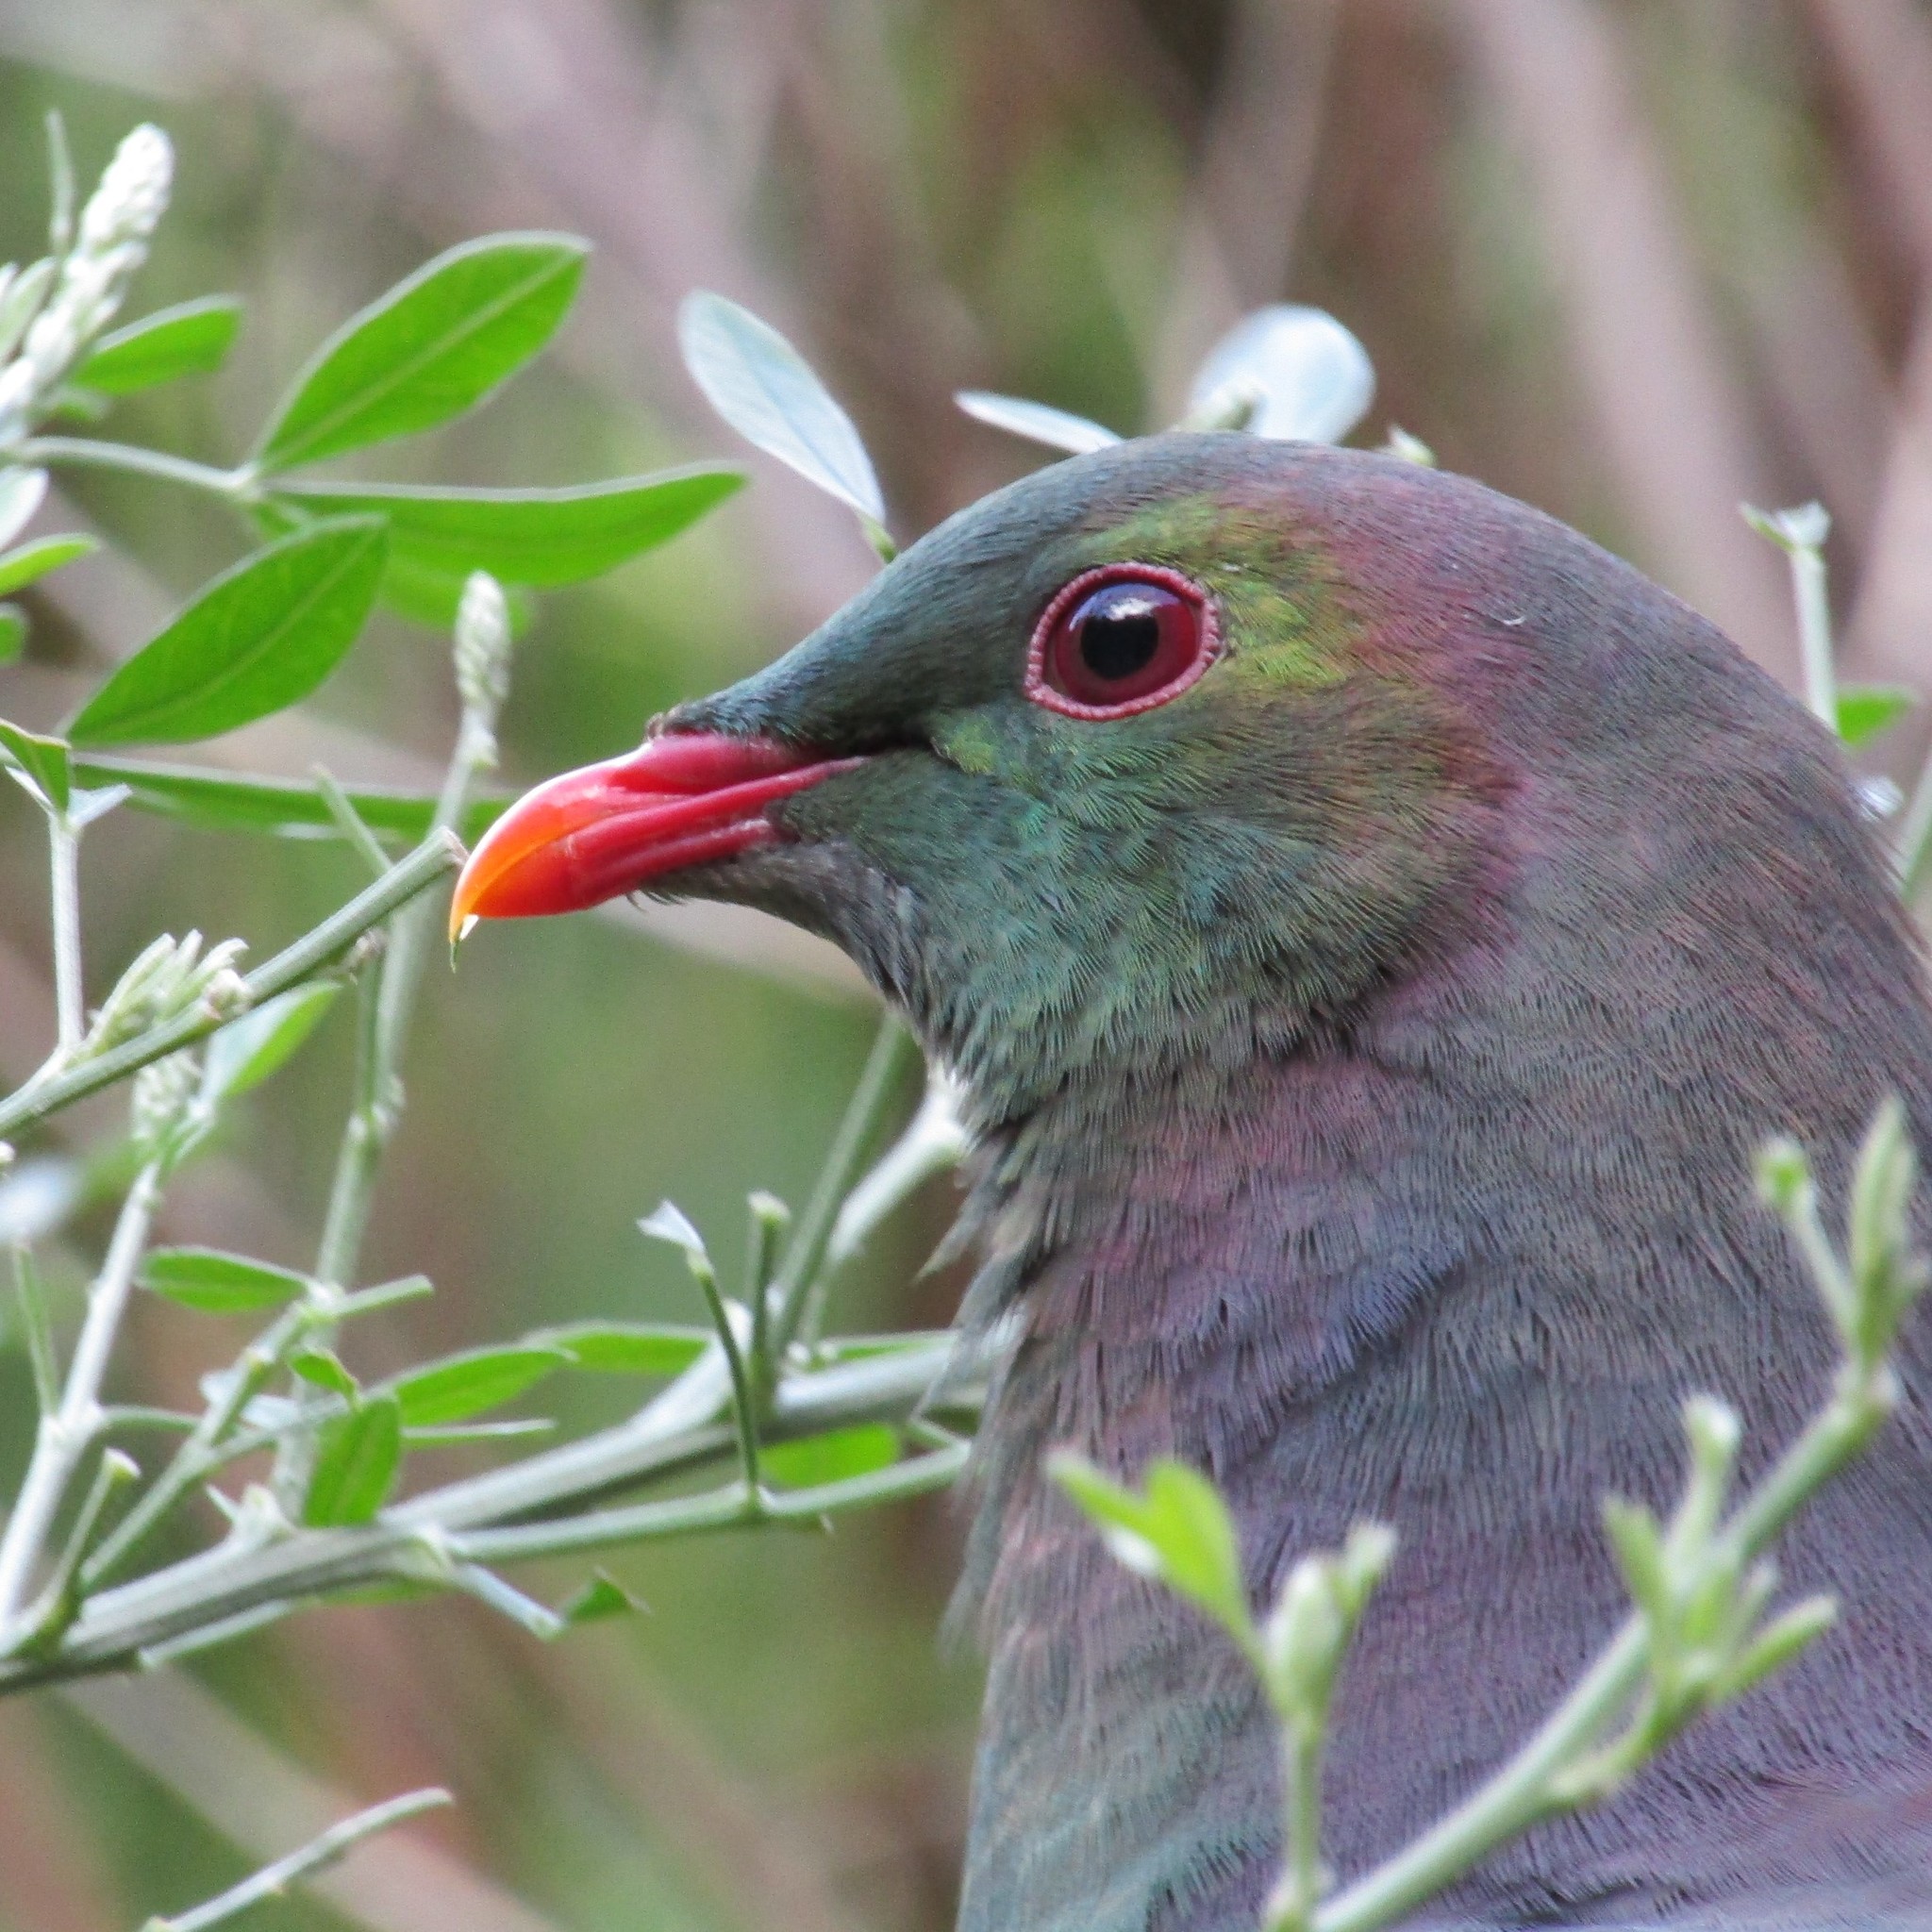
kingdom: Animalia
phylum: Chordata
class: Aves
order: Columbiformes
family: Columbidae
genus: Hemiphaga
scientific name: Hemiphaga novaeseelandiae
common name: New zealand pigeon
